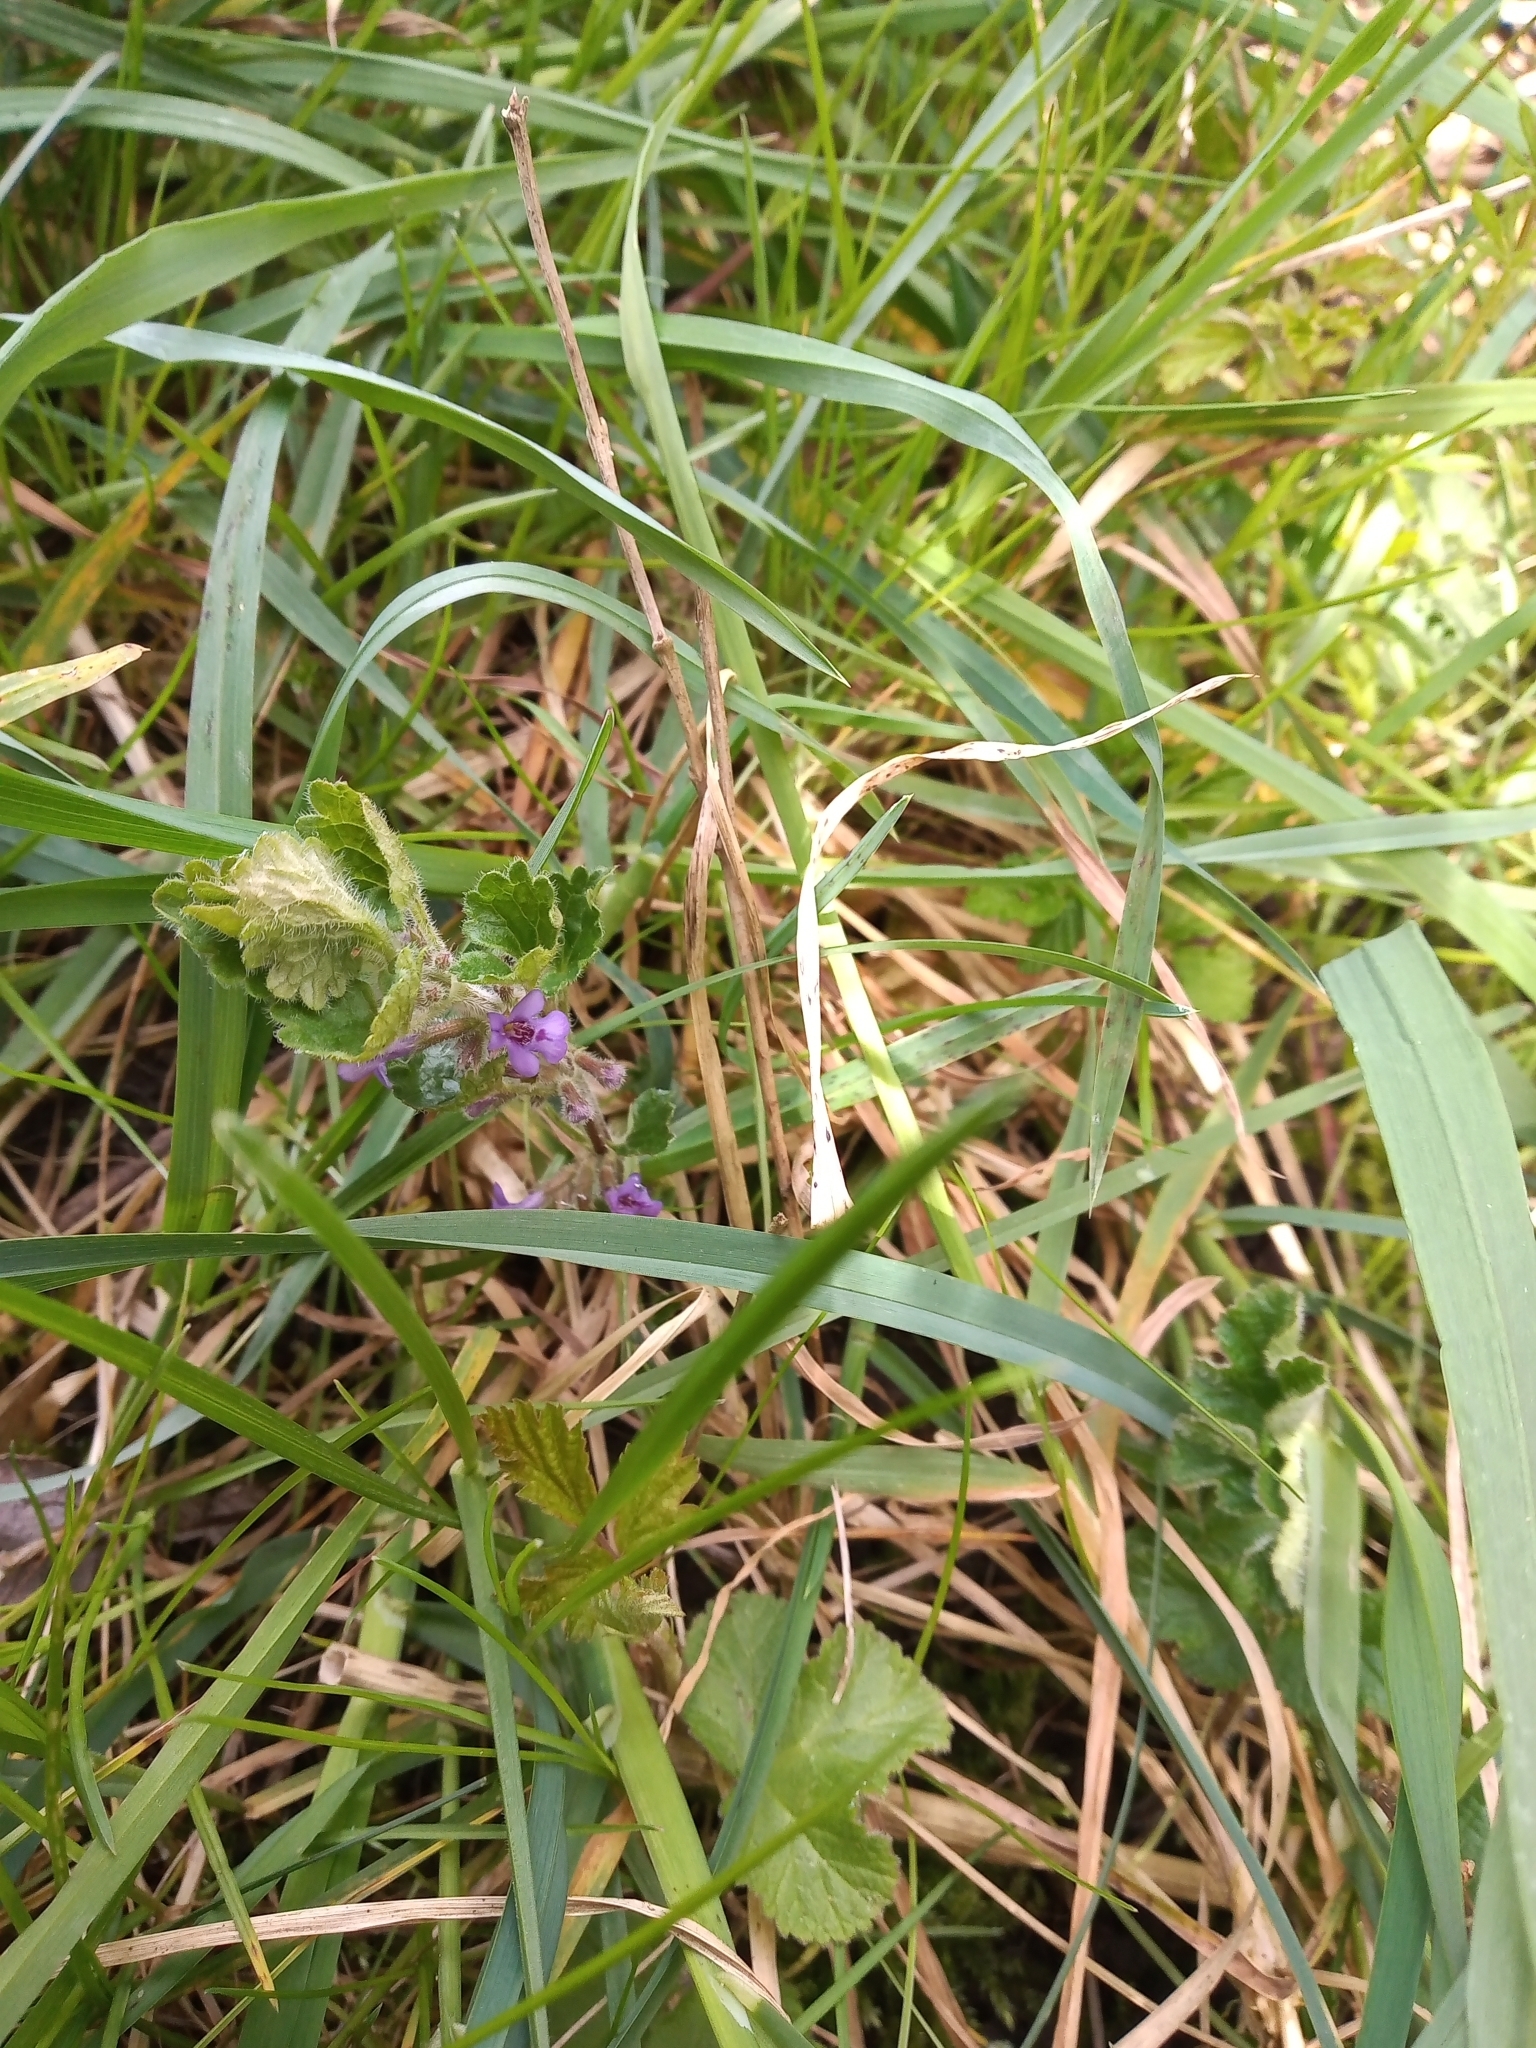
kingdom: Plantae
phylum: Tracheophyta
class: Magnoliopsida
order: Lamiales
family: Lamiaceae
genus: Glechoma
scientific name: Glechoma hederacea
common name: Ground ivy
